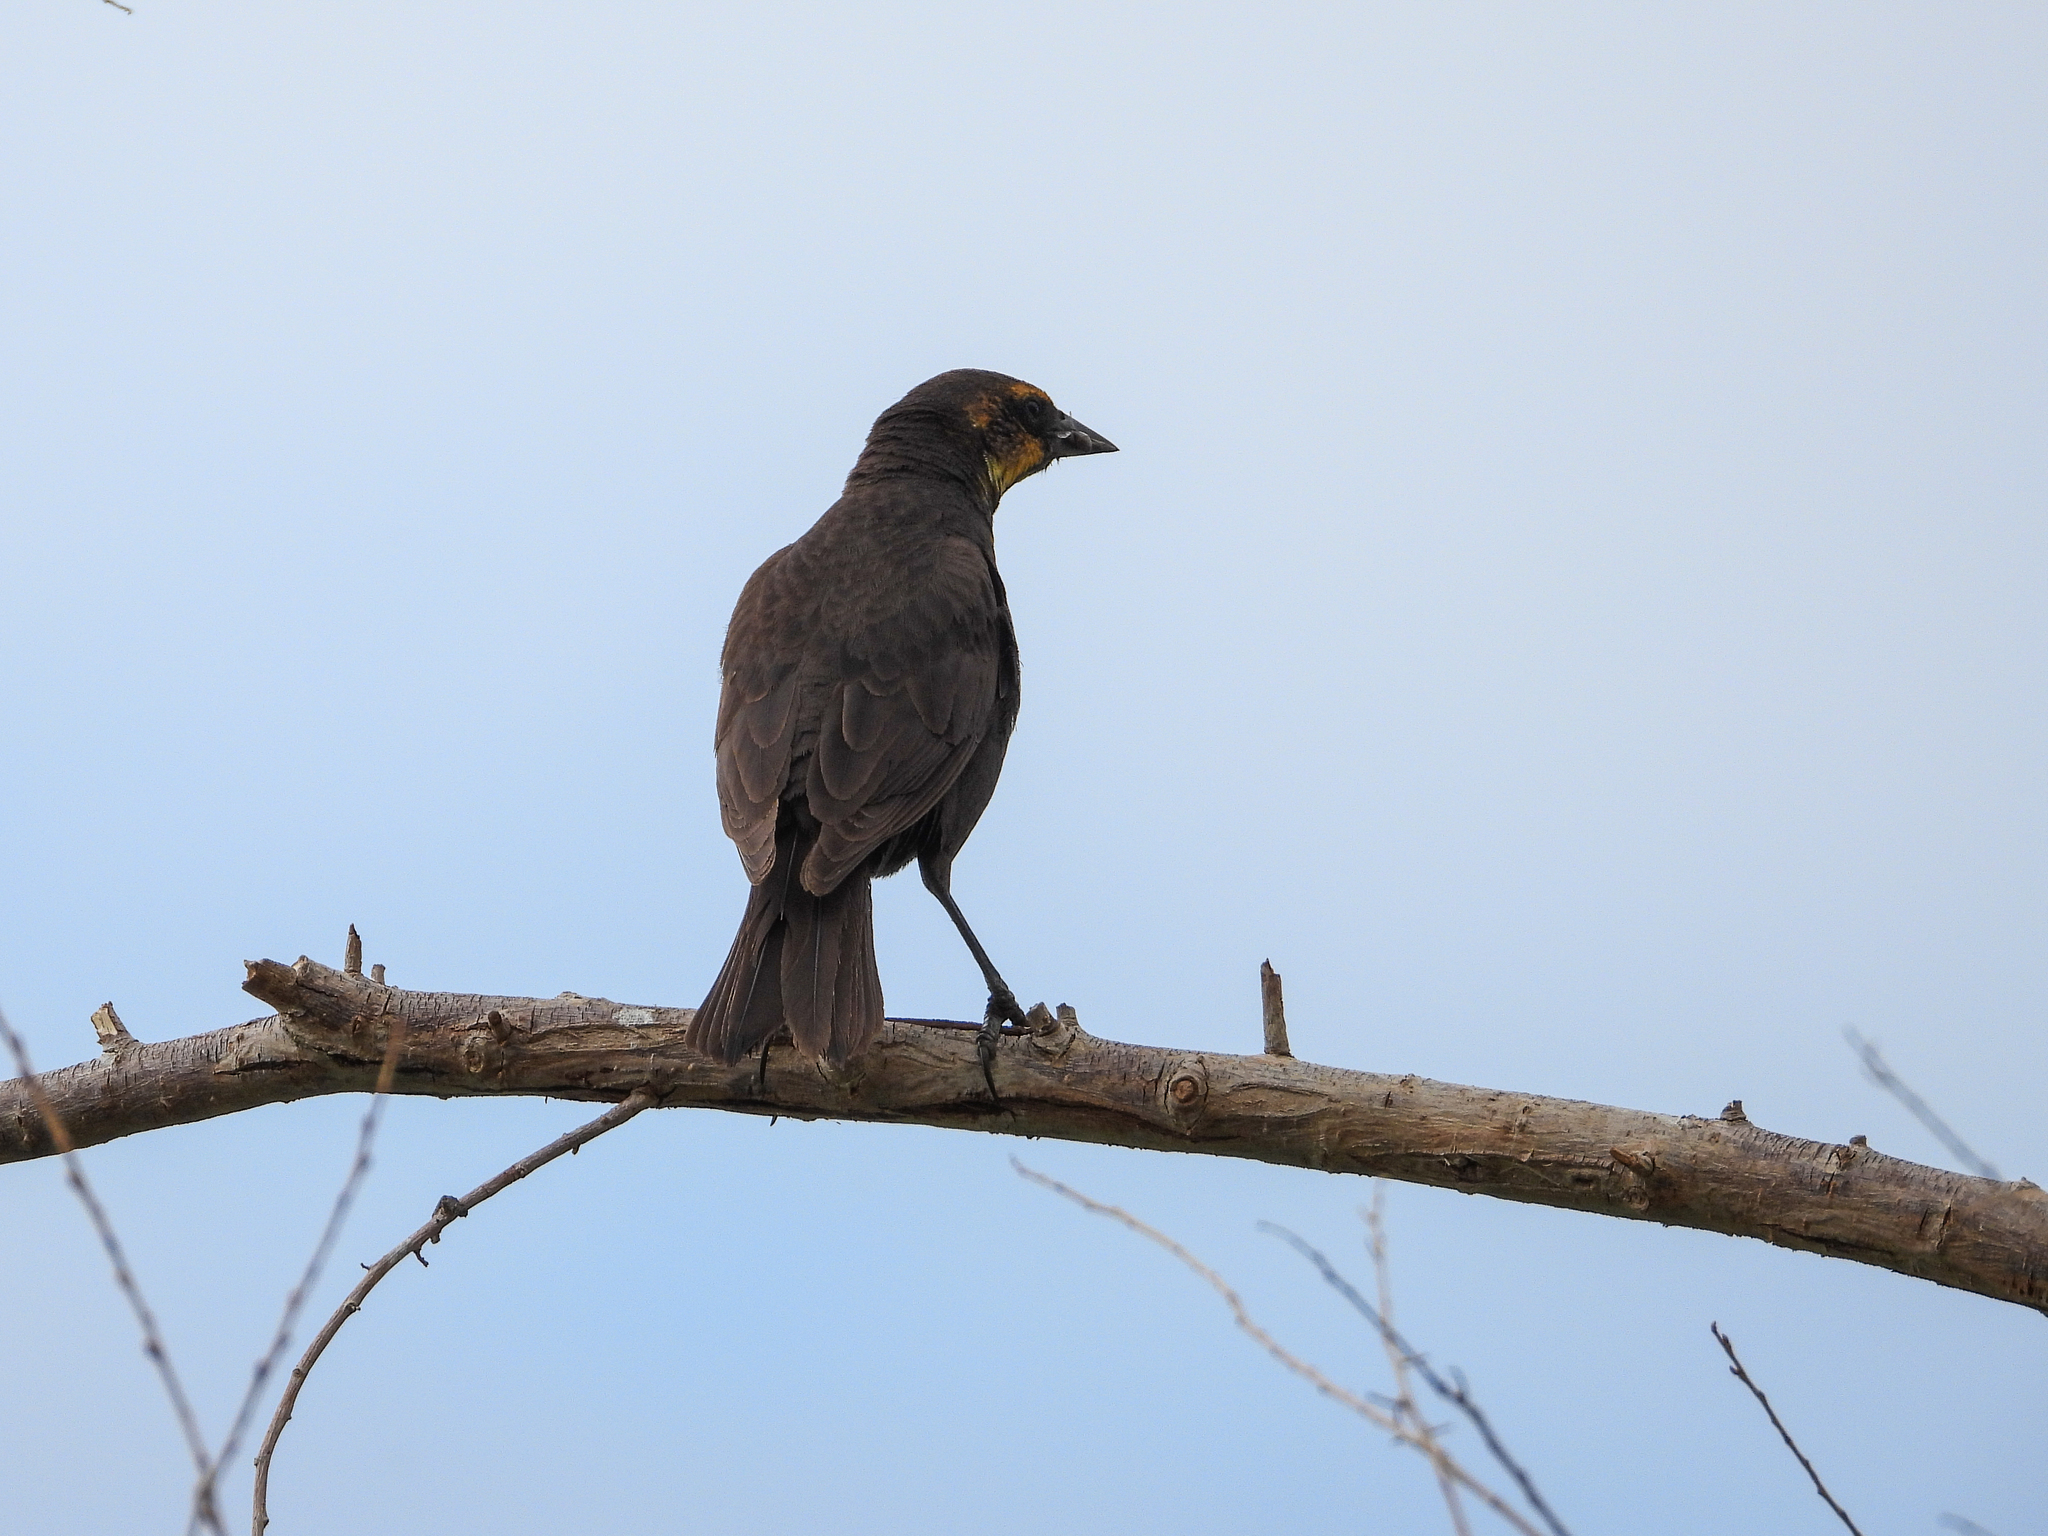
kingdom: Animalia
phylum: Chordata
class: Aves
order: Passeriformes
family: Icteridae
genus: Xanthocephalus
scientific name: Xanthocephalus xanthocephalus
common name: Yellow-headed blackbird
